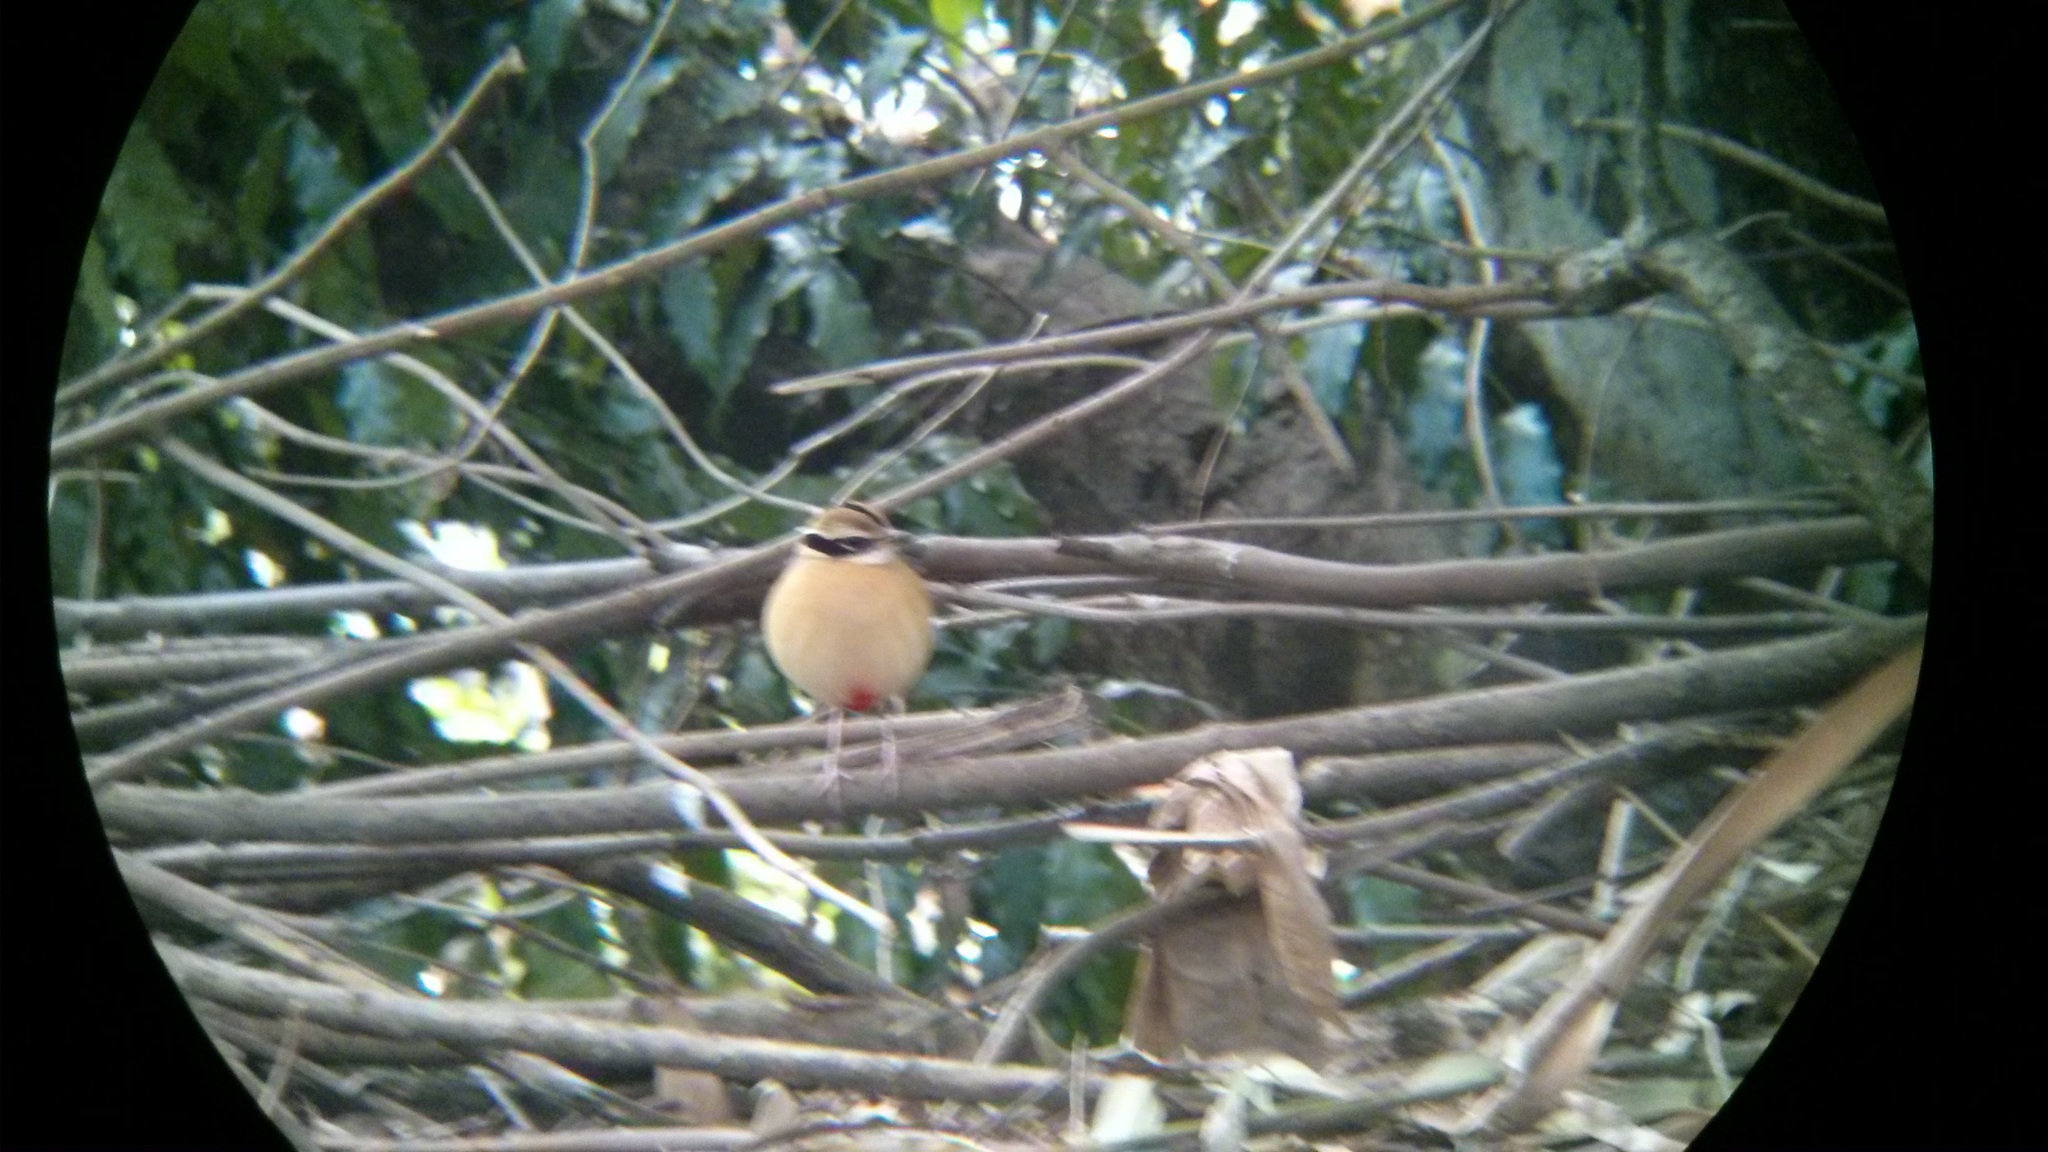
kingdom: Animalia
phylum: Chordata
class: Aves
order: Passeriformes
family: Pittidae
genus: Pitta
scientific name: Pitta brachyura
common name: Indian pitta
